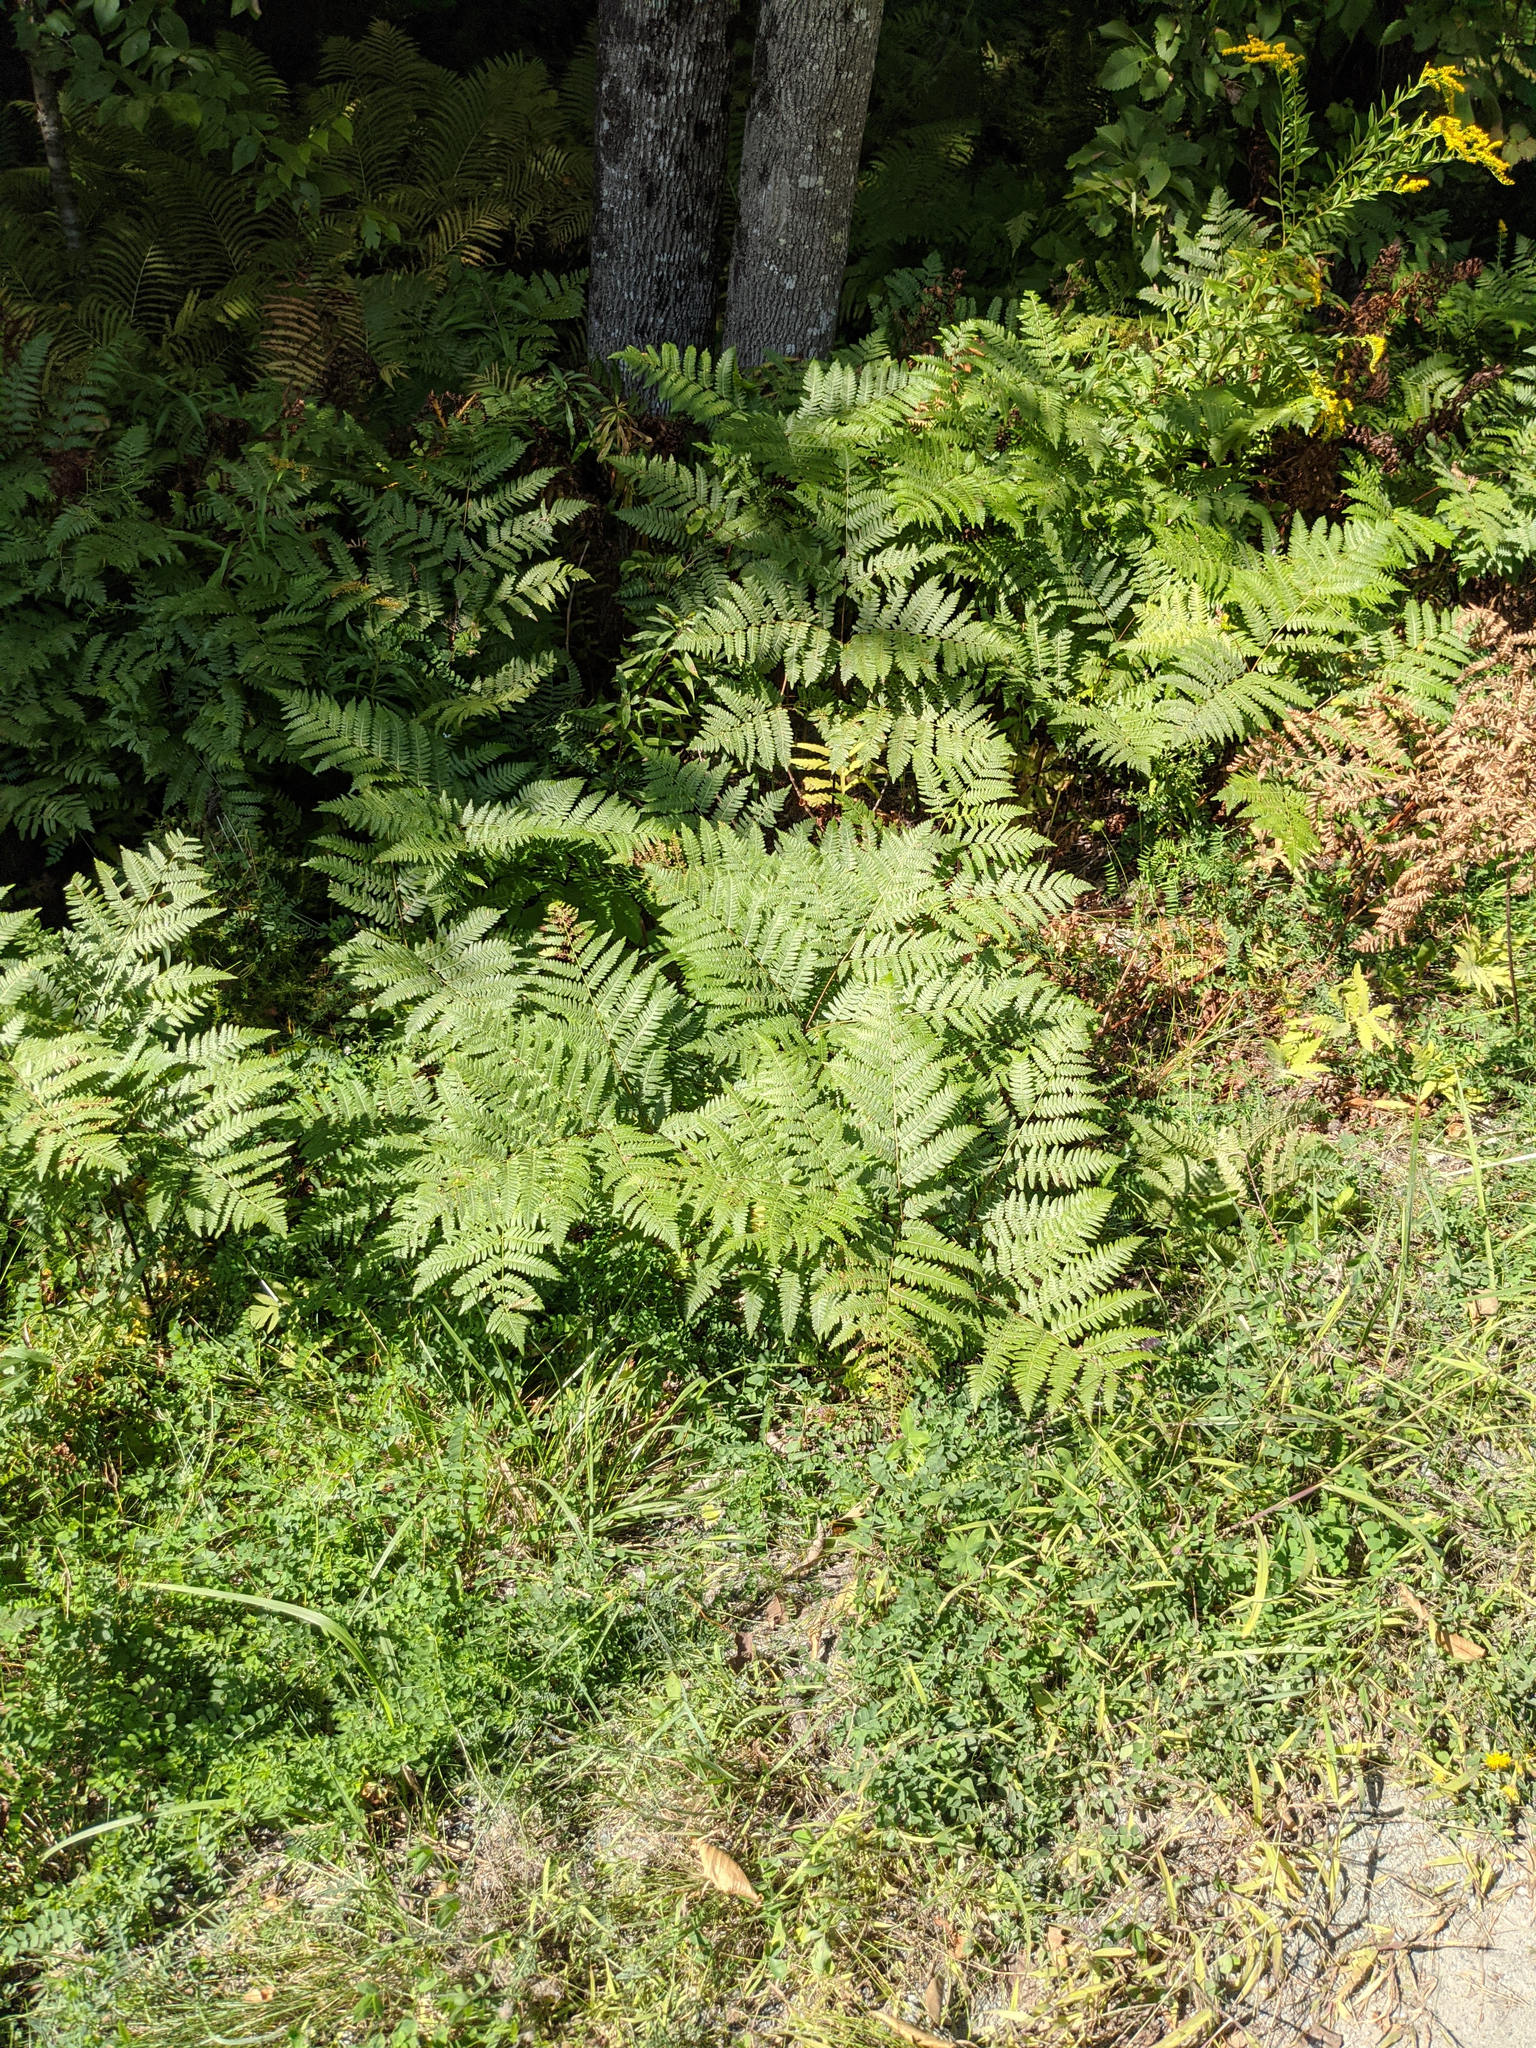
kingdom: Plantae
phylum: Tracheophyta
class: Polypodiopsida
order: Polypodiales
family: Dennstaedtiaceae
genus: Pteridium
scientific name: Pteridium aquilinum
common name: Bracken
